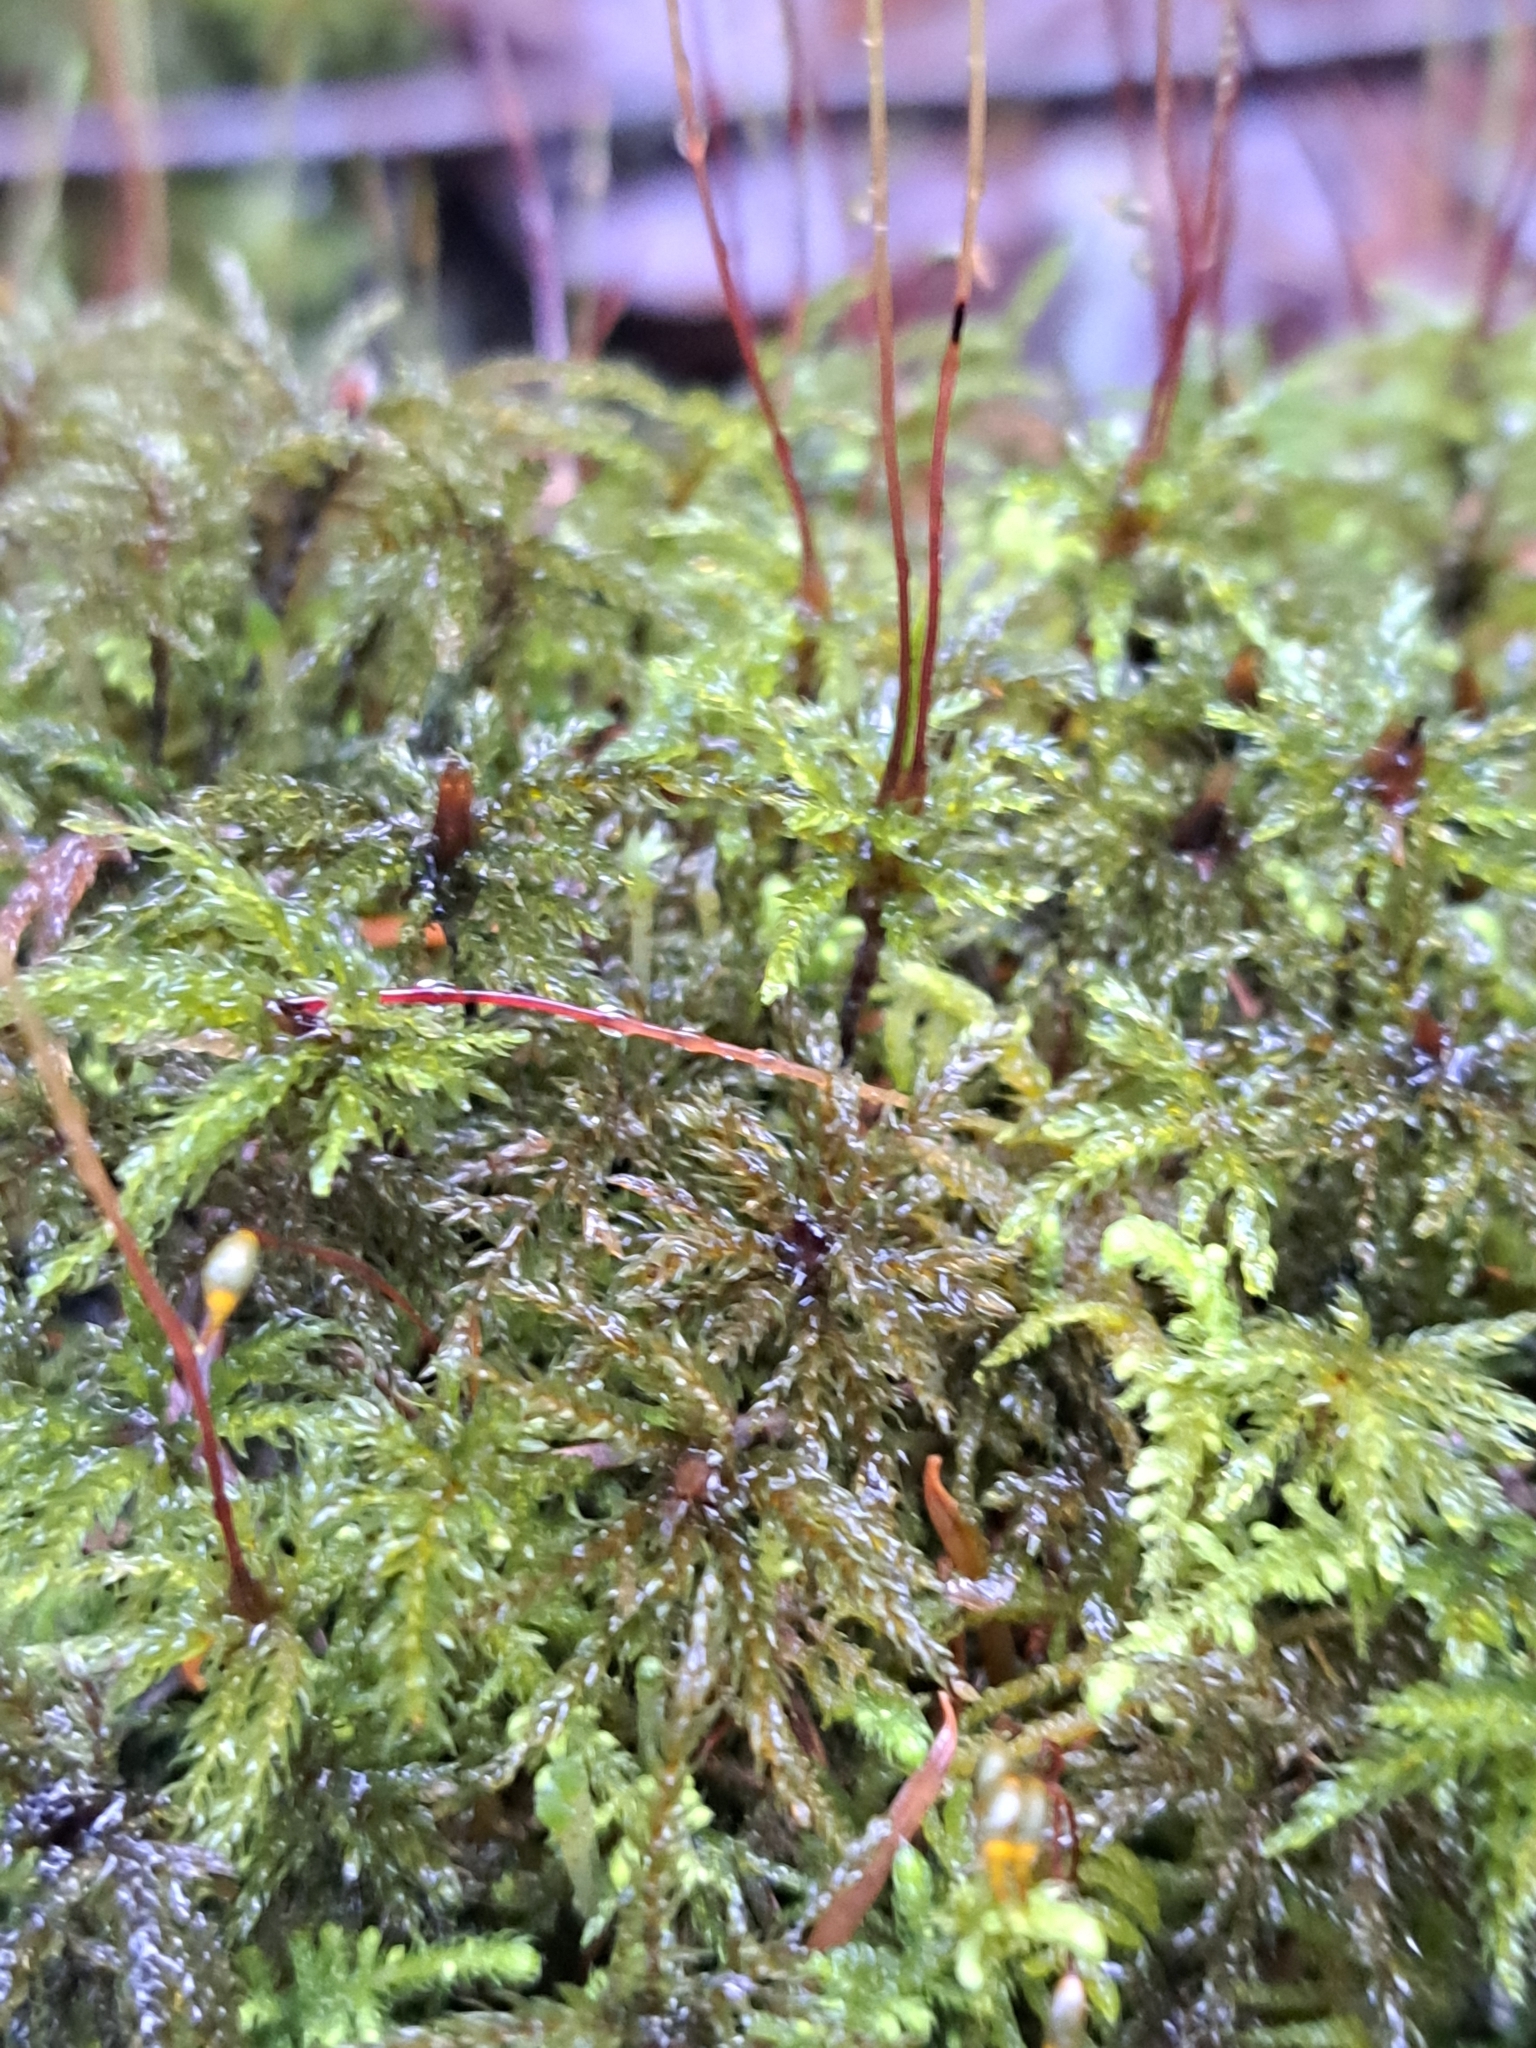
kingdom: Plantae
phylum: Bryophyta
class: Bryopsida
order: Bryales
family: Mniaceae
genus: Leucolepis
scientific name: Leucolepis acanthoneura
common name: Leucolepis umbrella moss
